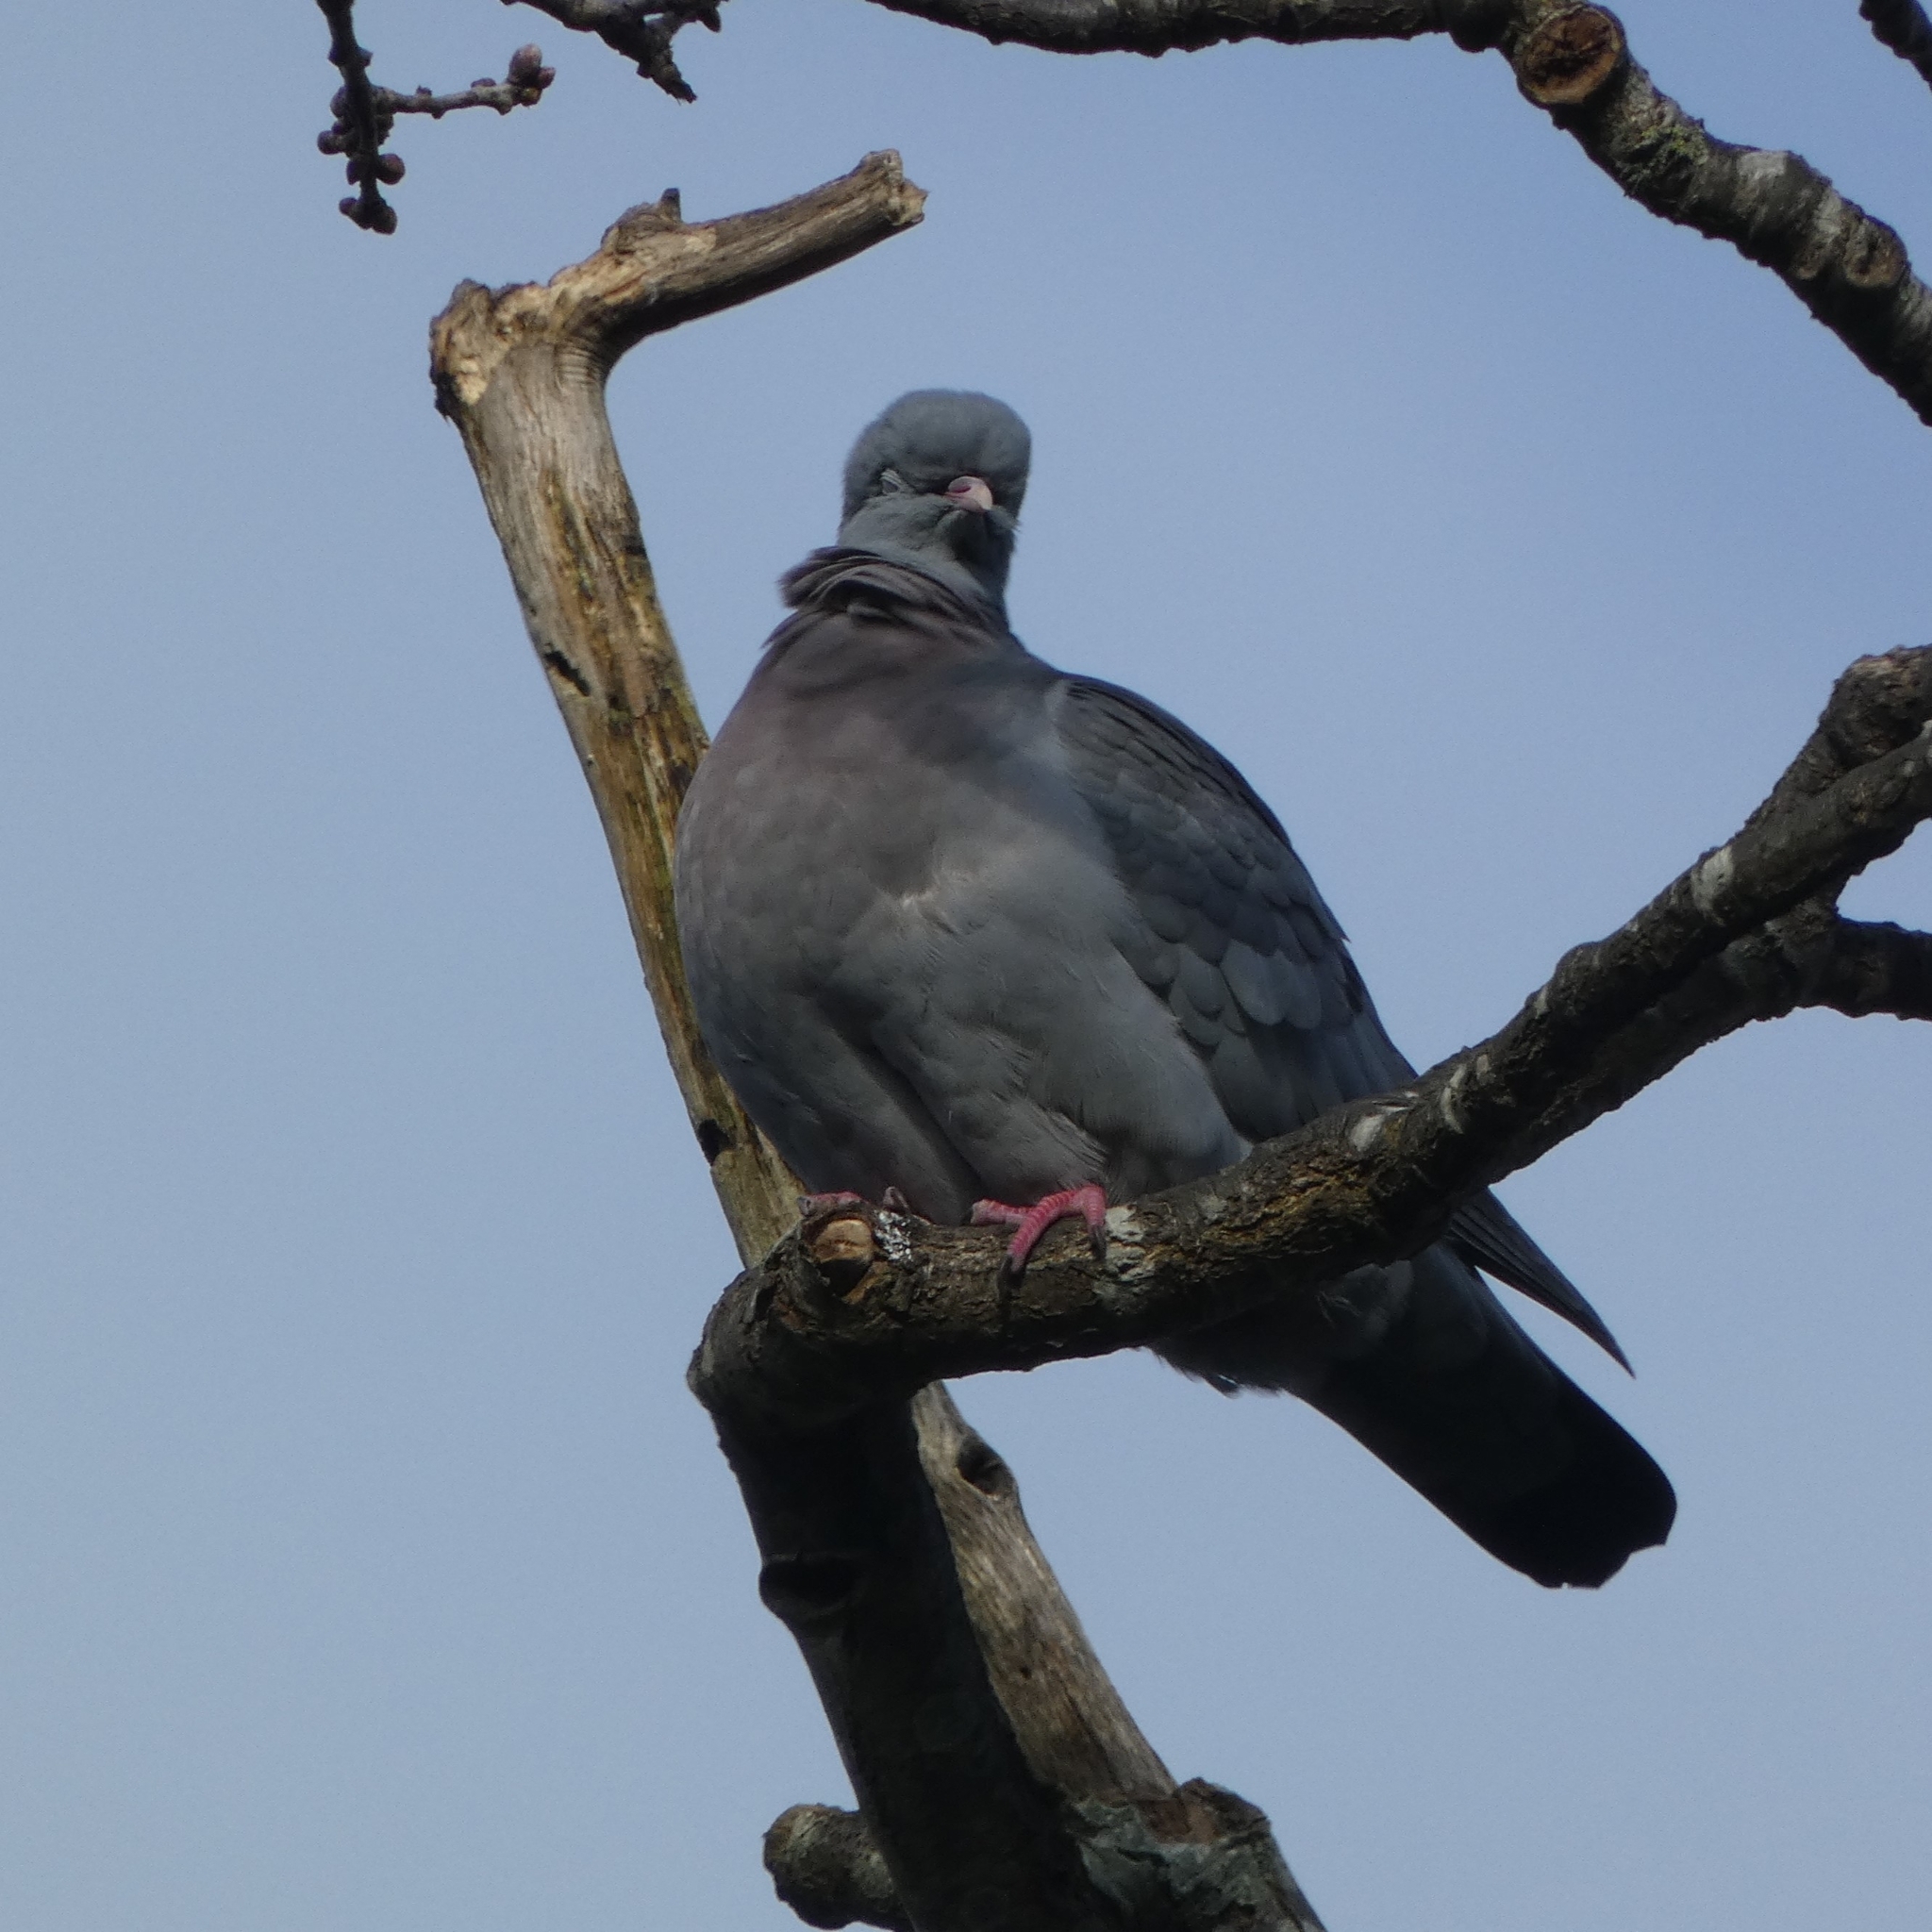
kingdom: Animalia
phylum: Chordata
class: Aves
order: Columbiformes
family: Columbidae
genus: Columba
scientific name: Columba oenas
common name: Stock dove
